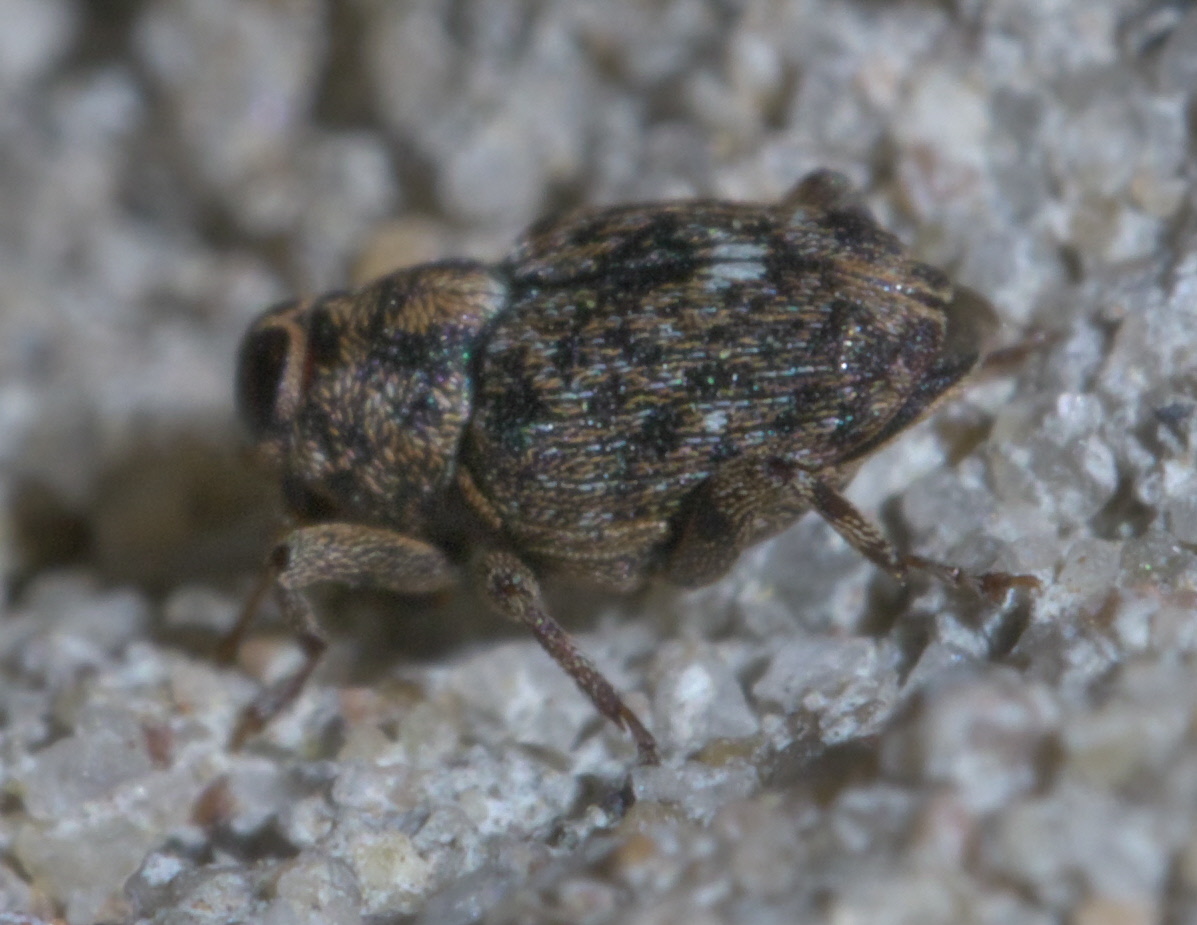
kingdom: Animalia
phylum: Arthropoda
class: Insecta
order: Coleoptera
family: Curculionidae
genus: Lechriops
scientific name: Lechriops oculatus
